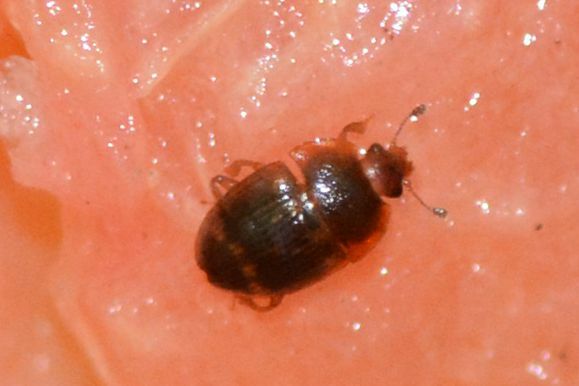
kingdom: Animalia
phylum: Arthropoda
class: Insecta
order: Coleoptera
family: Nitidulidae
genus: Stelidota
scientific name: Stelidota geminata
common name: Strawberry sap beetle
